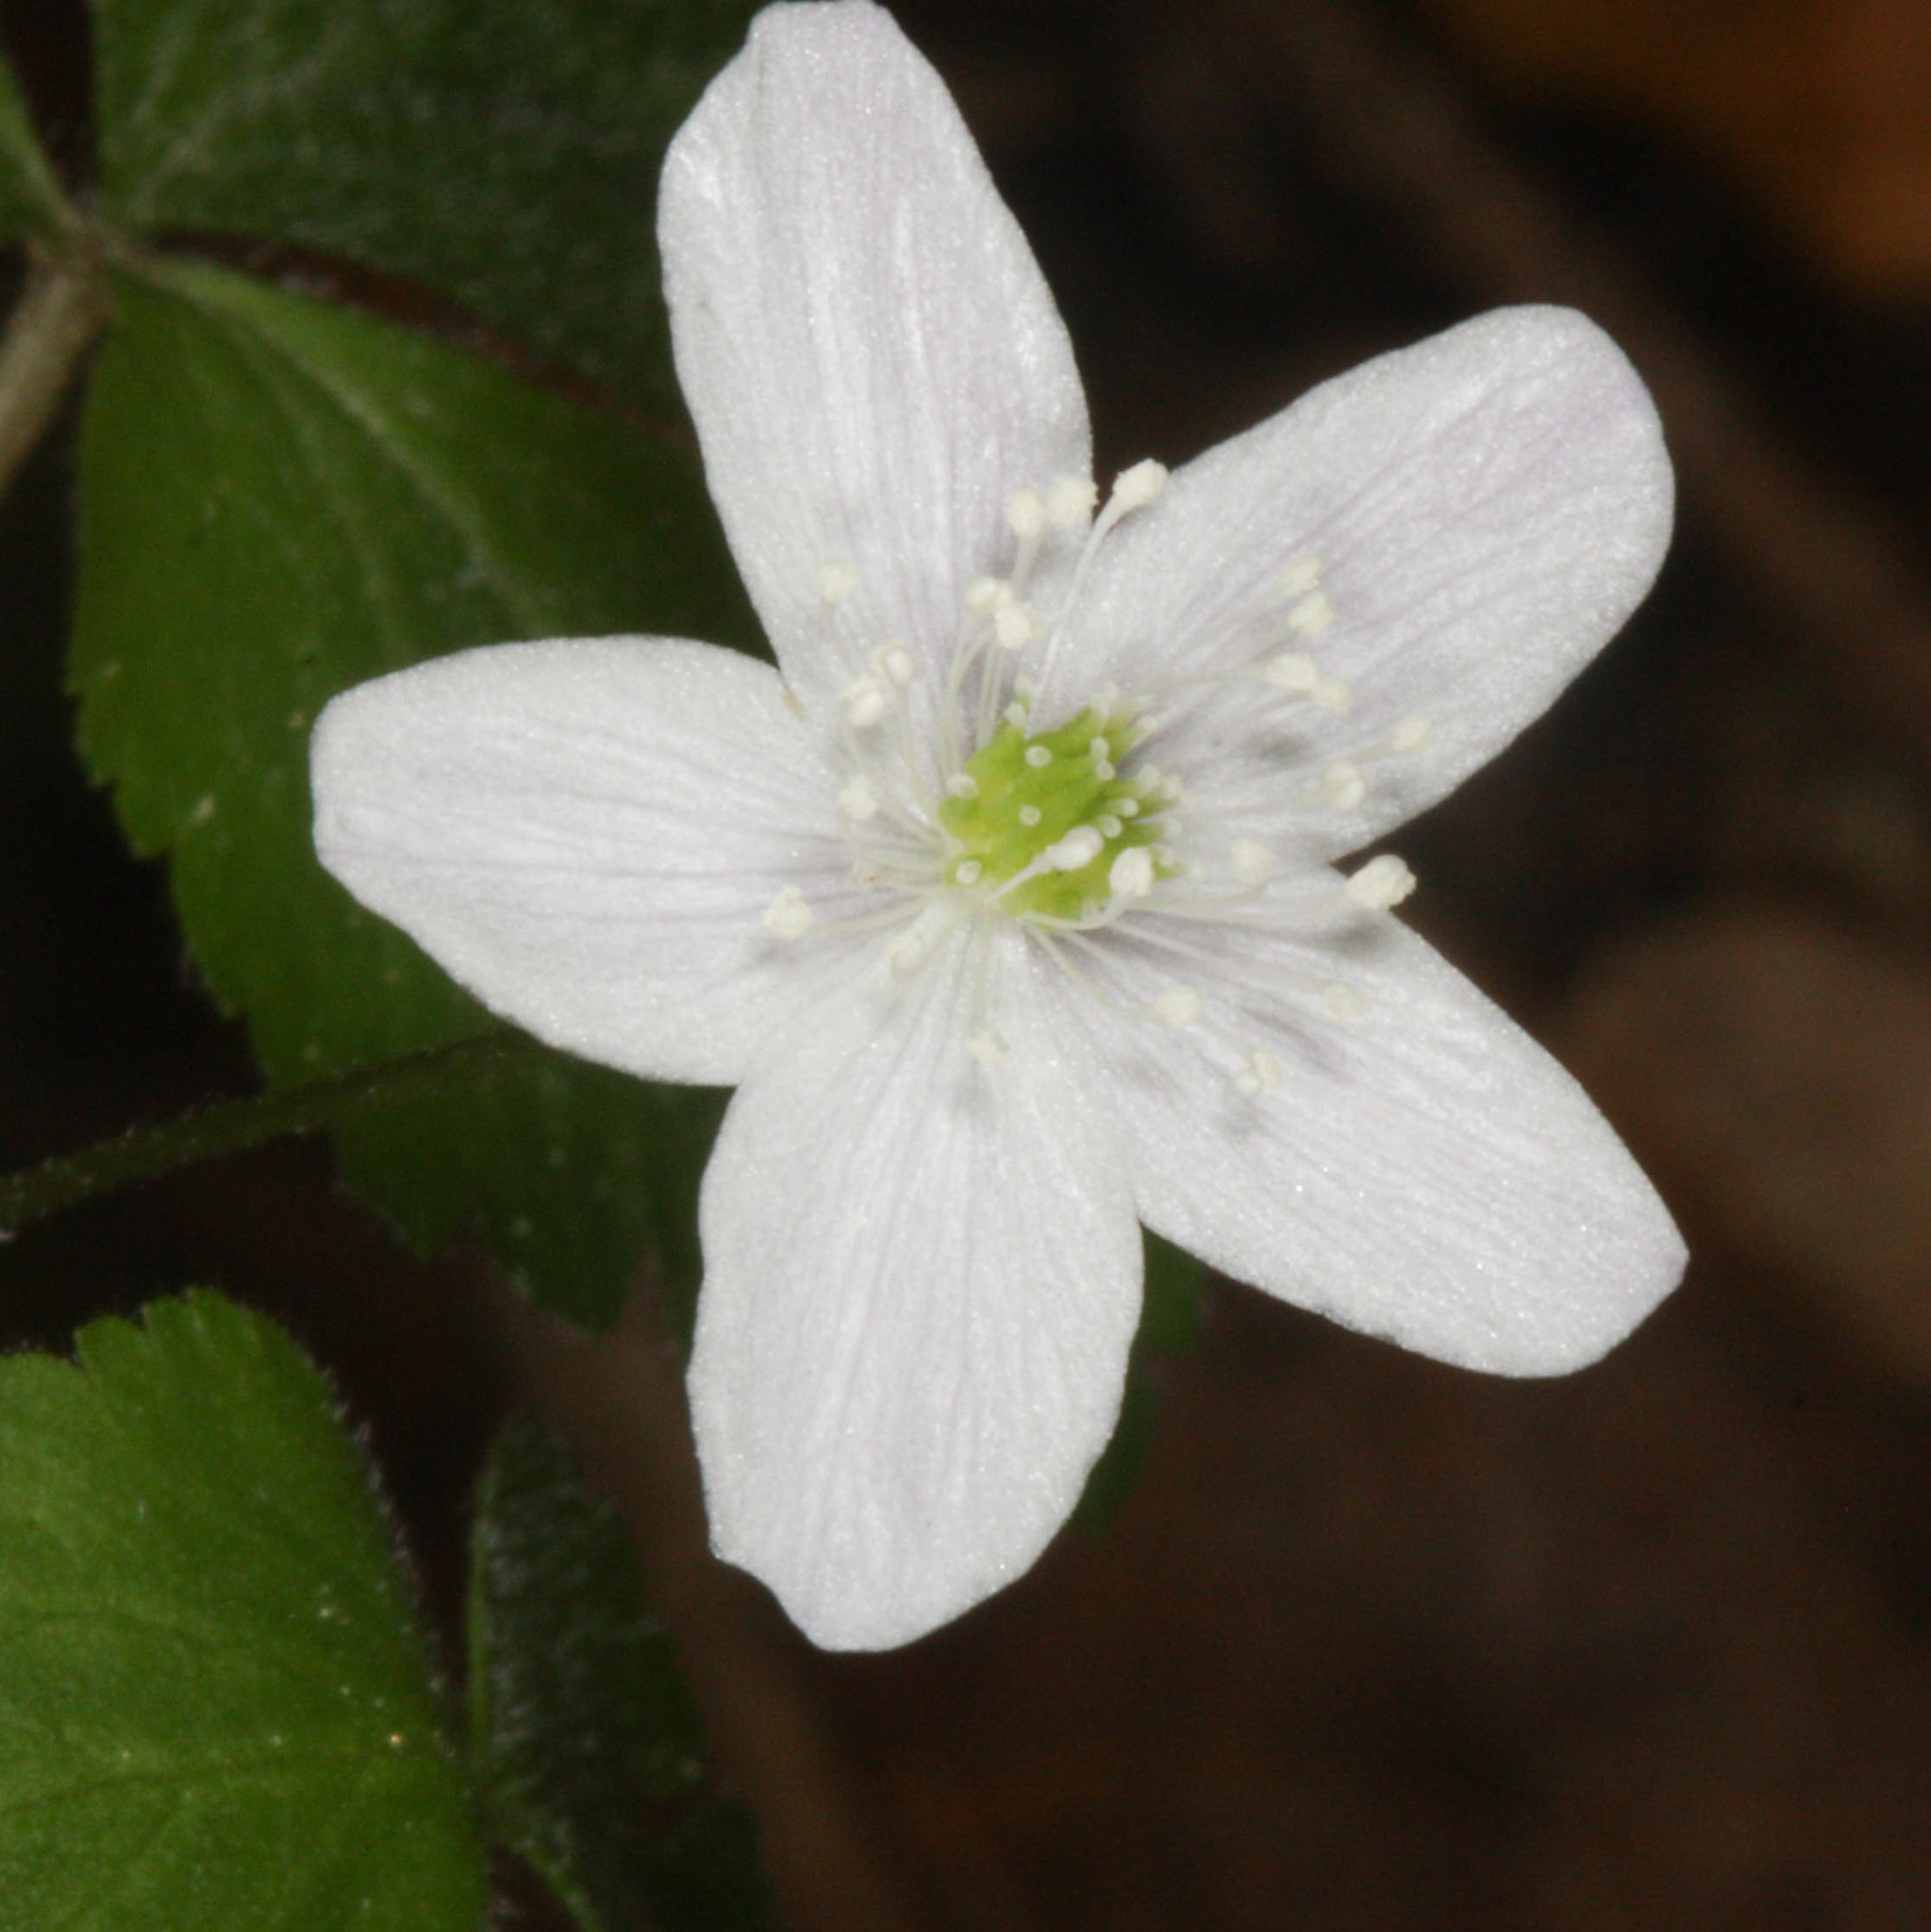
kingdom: Plantae
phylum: Tracheophyta
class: Magnoliopsida
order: Ranunculales
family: Ranunculaceae
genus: Anemone
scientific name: Anemone
